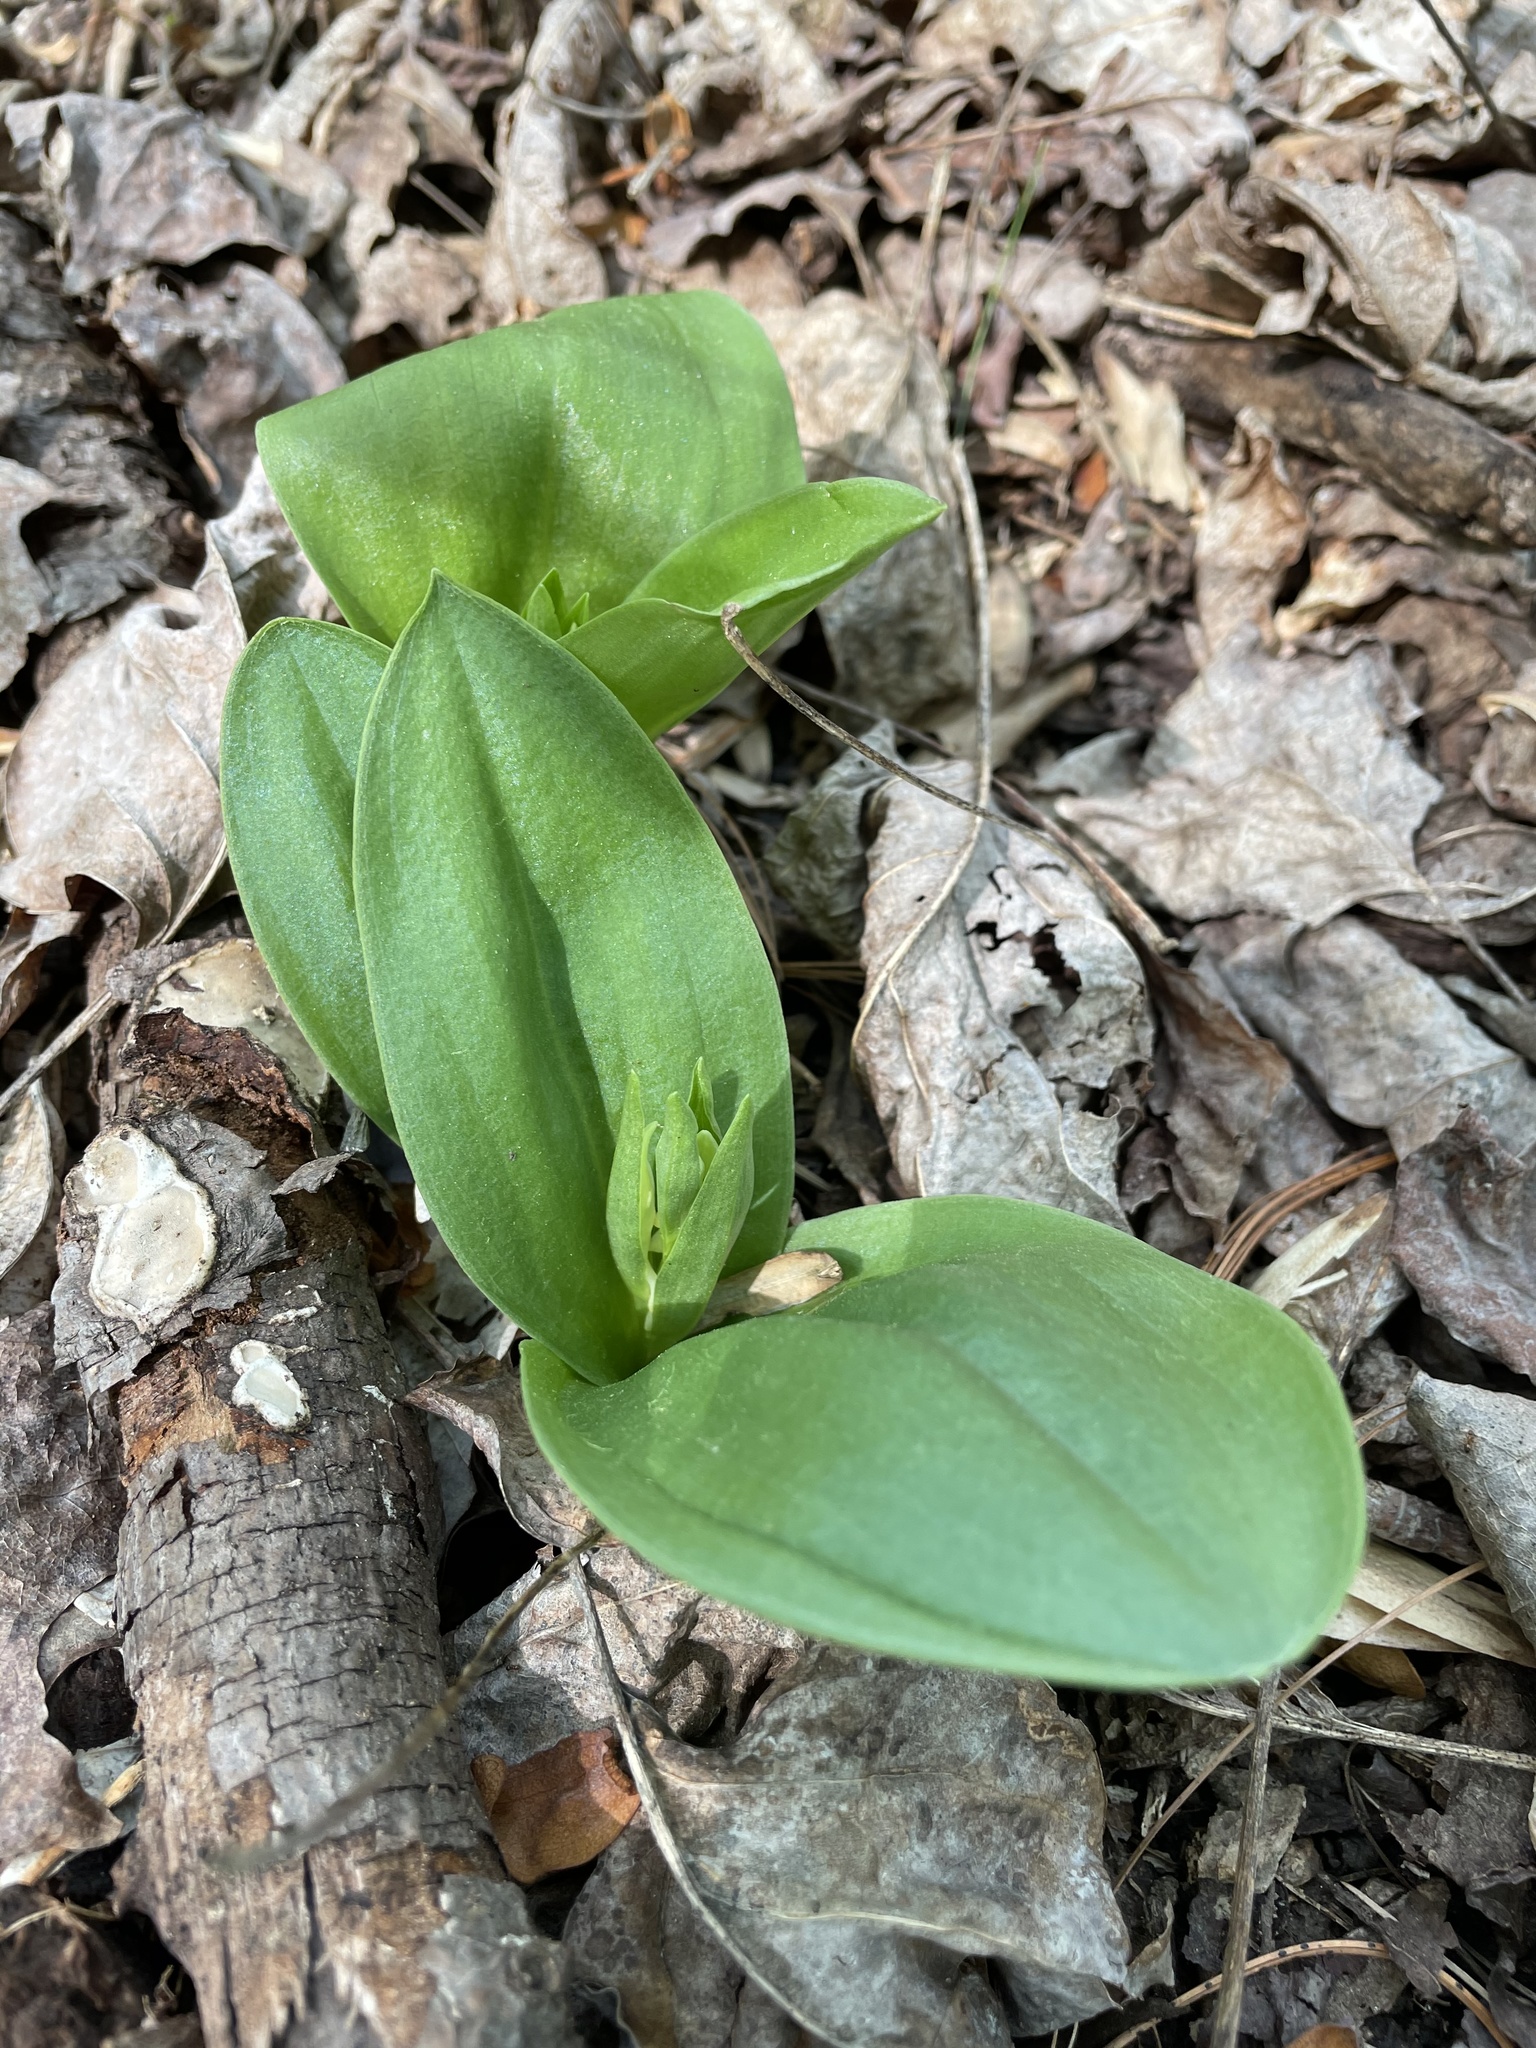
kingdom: Plantae
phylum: Tracheophyta
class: Liliopsida
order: Asparagales
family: Orchidaceae
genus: Galearis
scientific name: Galearis spectabilis
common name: Purple-hooded orchis
